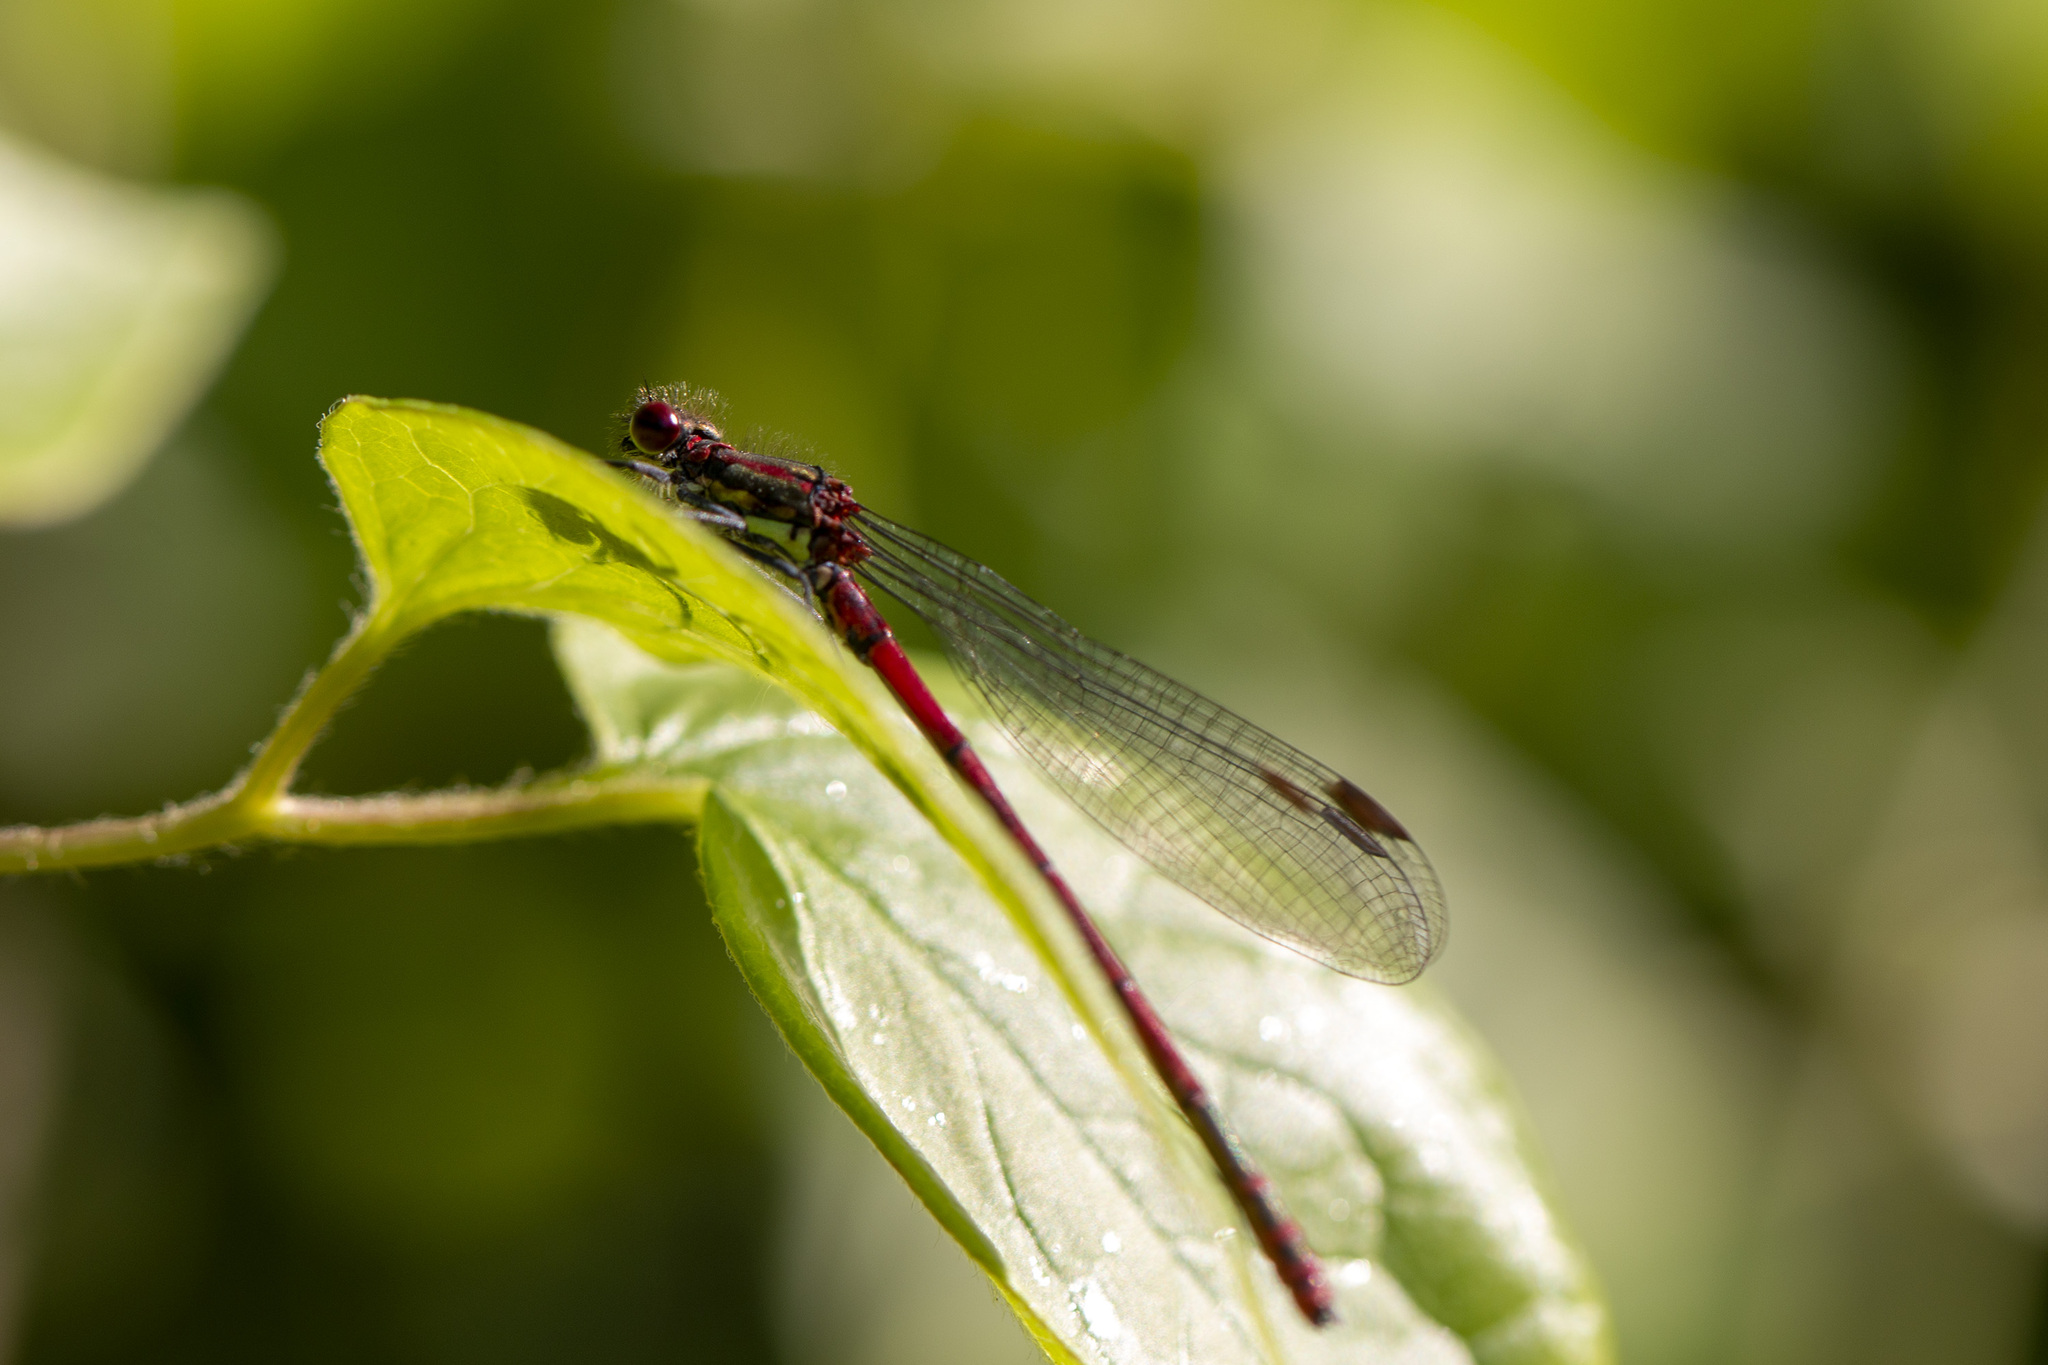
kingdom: Animalia
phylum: Arthropoda
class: Insecta
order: Odonata
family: Coenagrionidae
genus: Pyrrhosoma
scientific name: Pyrrhosoma nymphula
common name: Large red damsel
